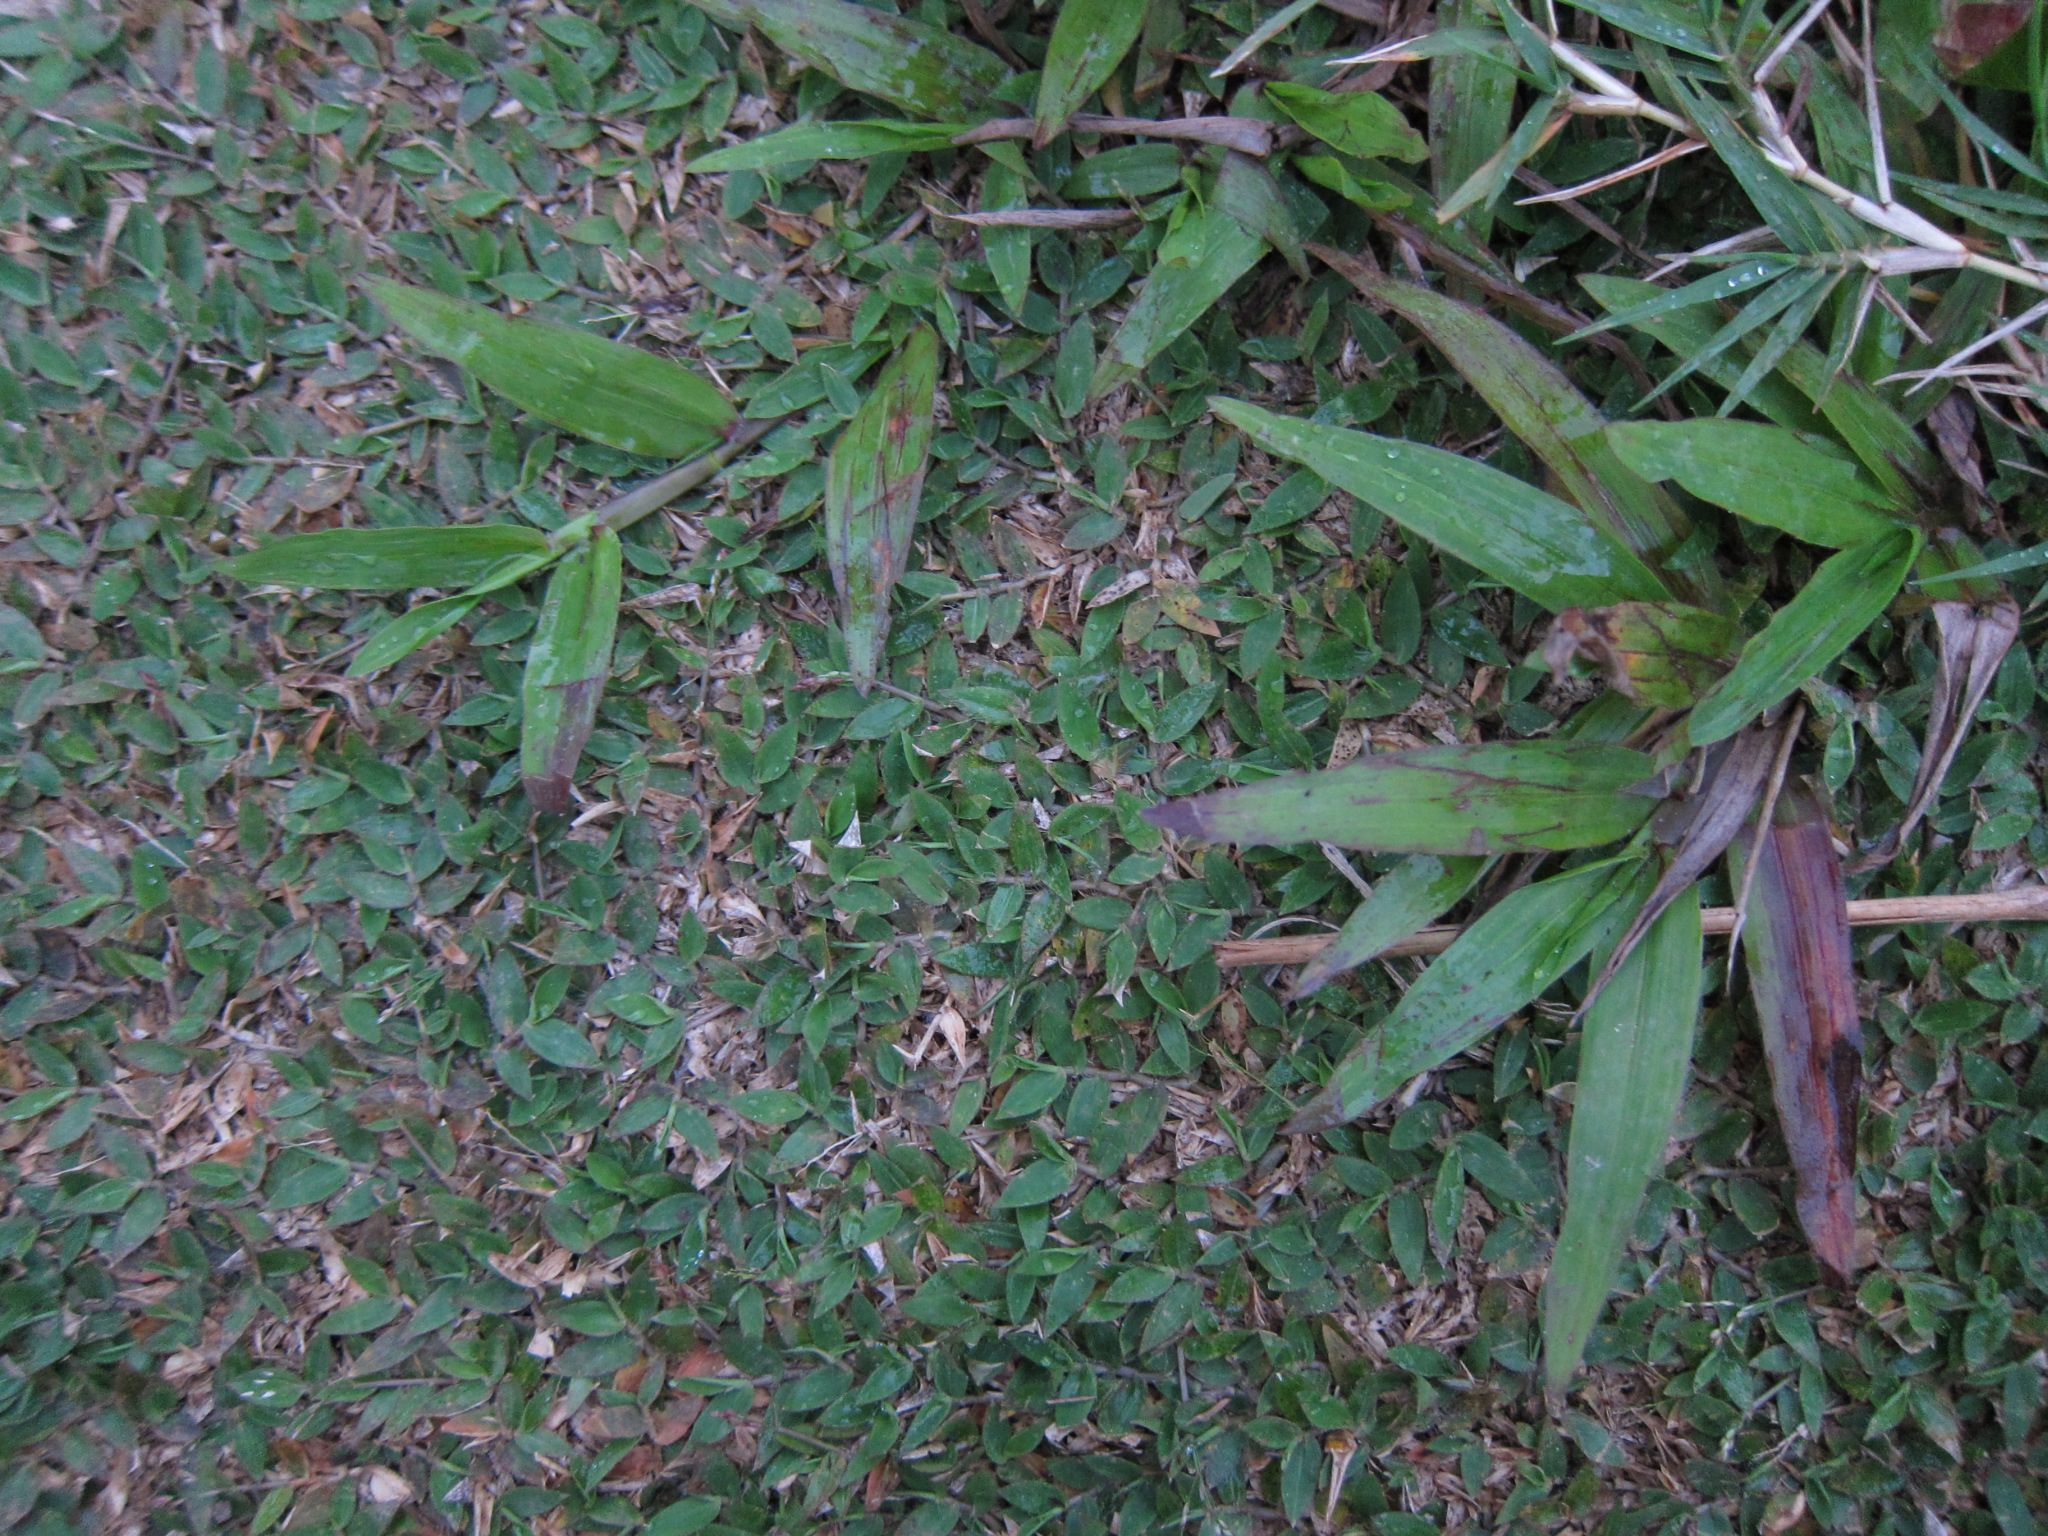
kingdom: Plantae
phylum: Tracheophyta
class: Liliopsida
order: Poales
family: Poaceae
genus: Urochloa
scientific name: Urochloa Brachiaria umbellata
